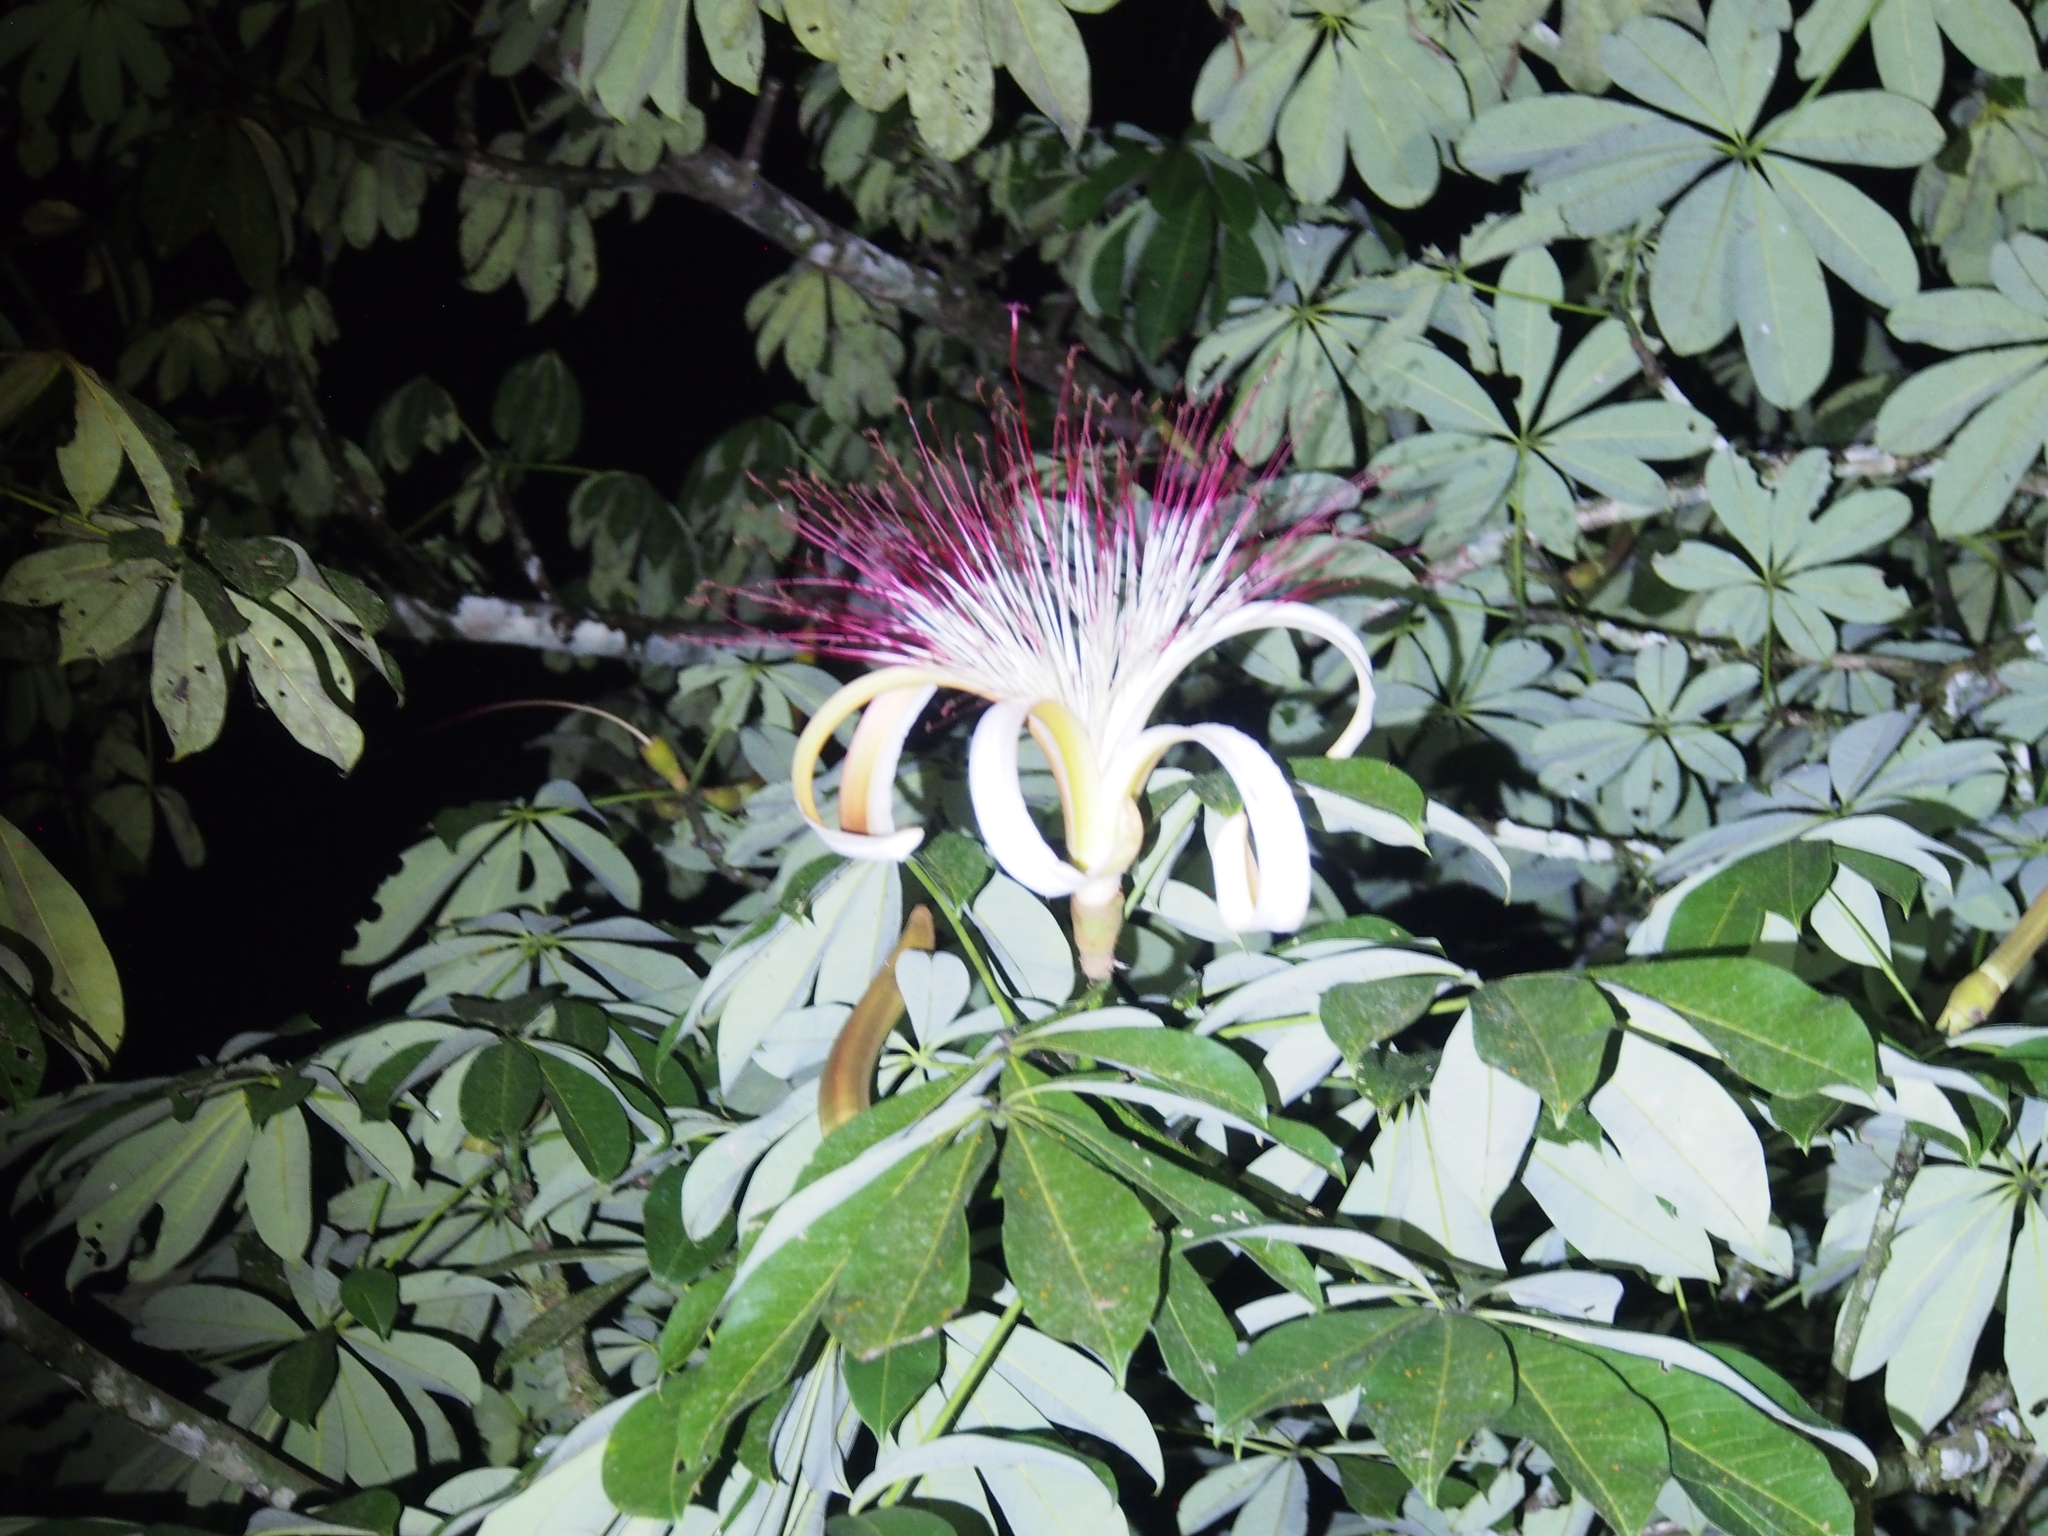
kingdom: Plantae
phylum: Tracheophyta
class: Magnoliopsida
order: Malvales
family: Malvaceae
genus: Pachira
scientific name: Pachira aquatica
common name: Provision-tree
